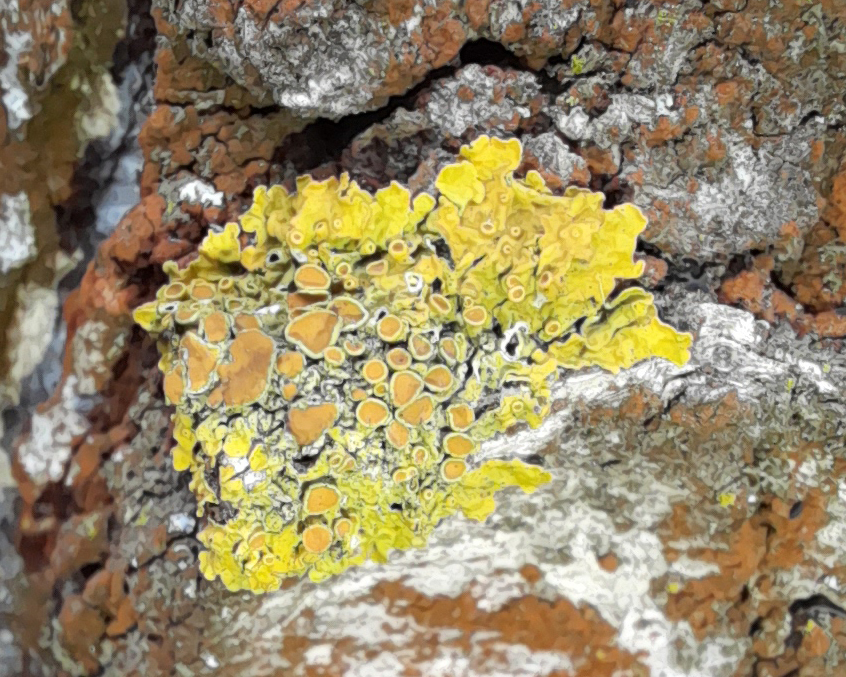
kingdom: Fungi
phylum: Ascomycota
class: Lecanoromycetes
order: Teloschistales
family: Teloschistaceae
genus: Xanthoria
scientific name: Xanthoria parietina
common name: Common orange lichen
